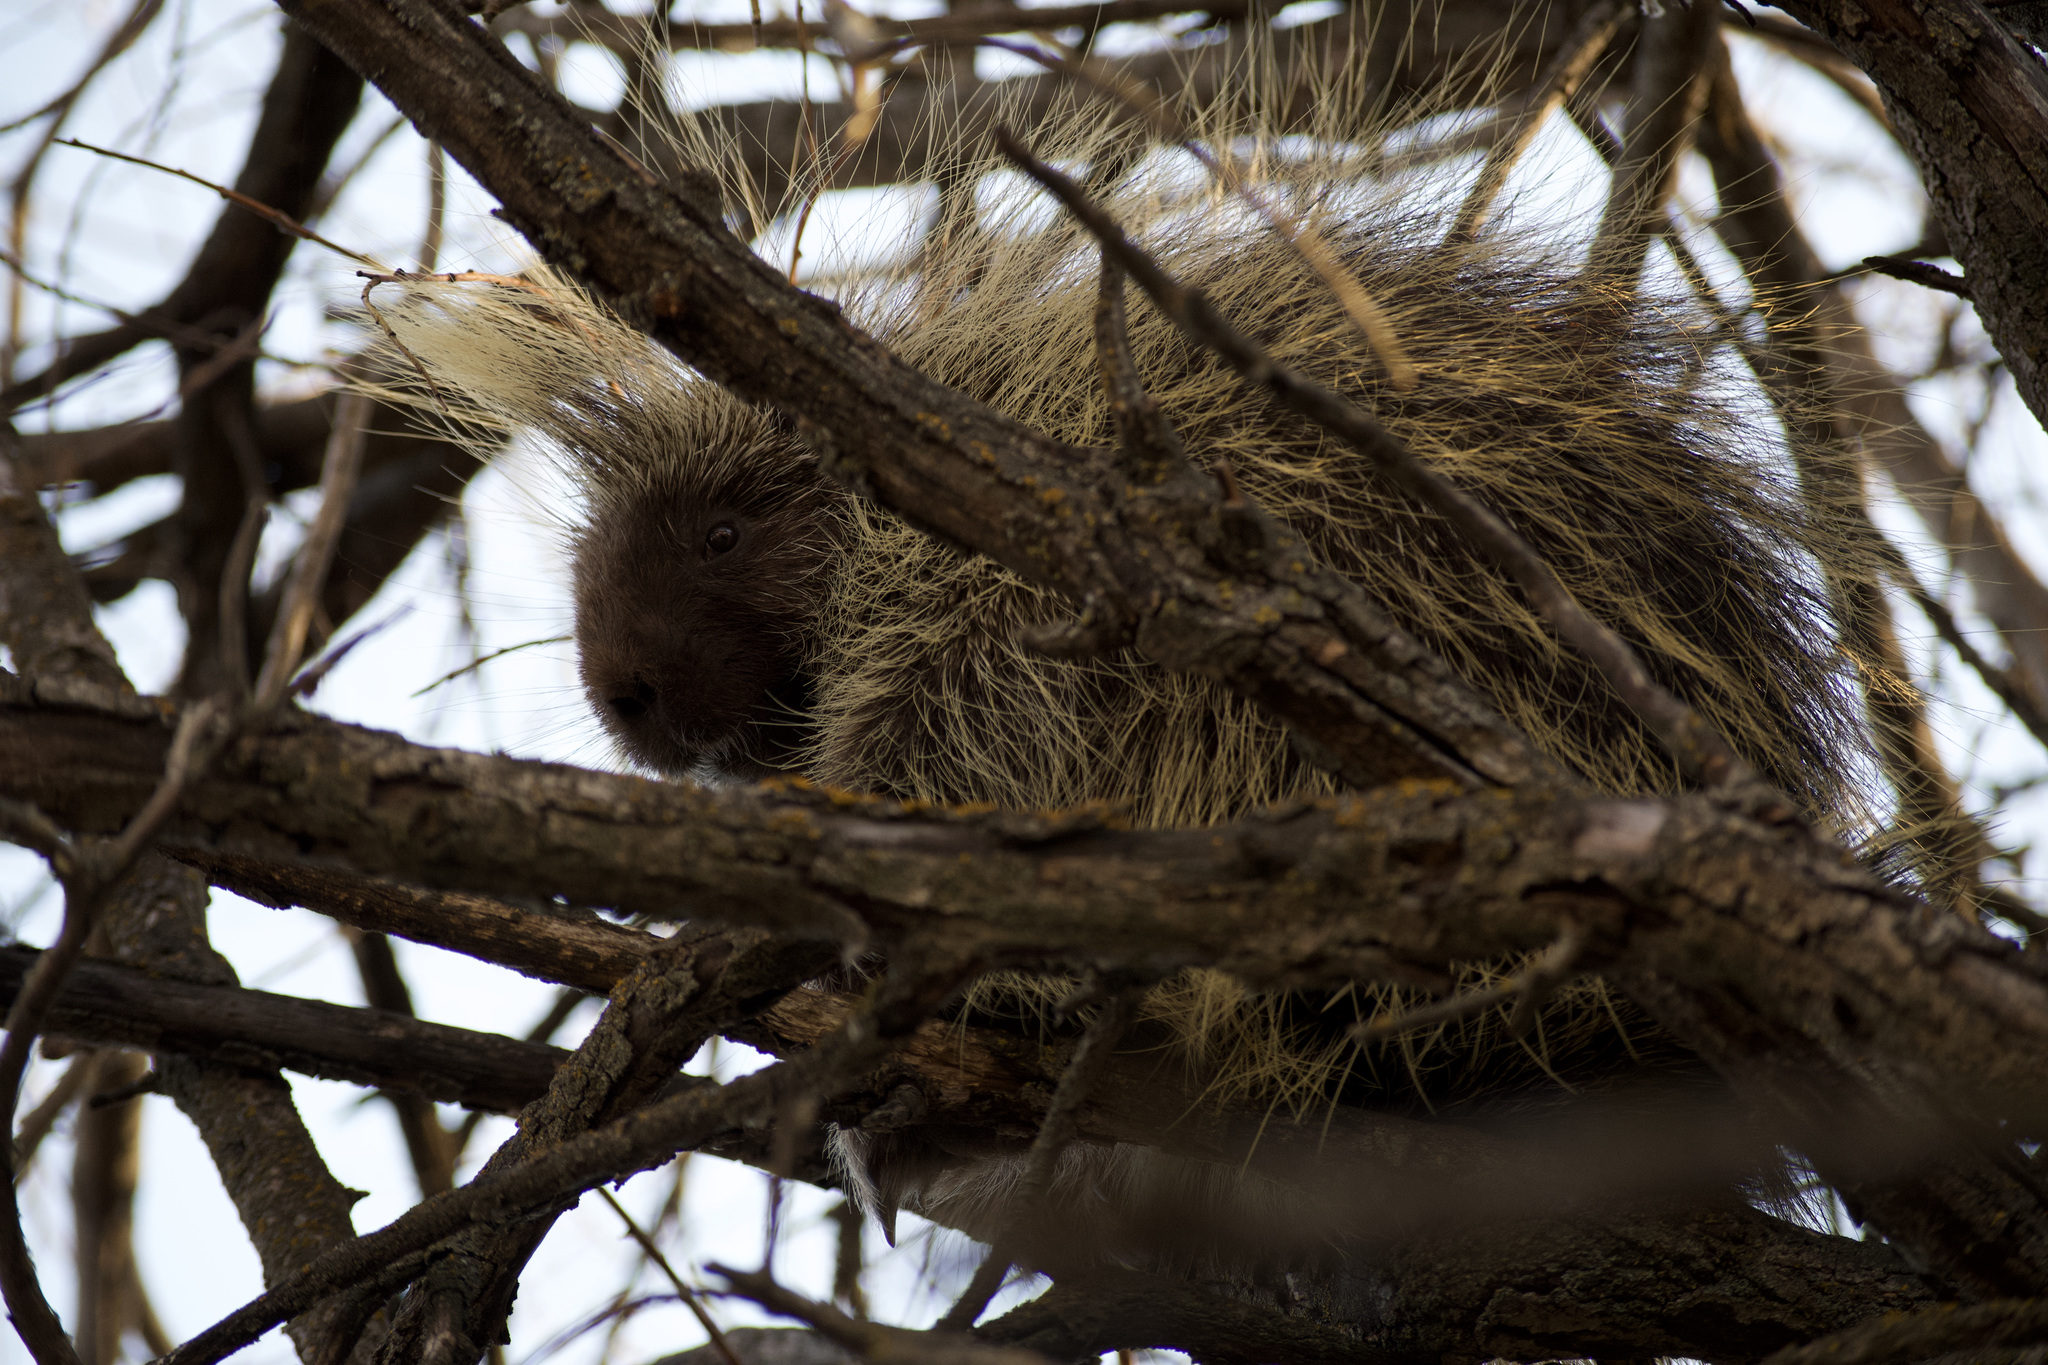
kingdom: Animalia
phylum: Chordata
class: Mammalia
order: Rodentia
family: Erethizontidae
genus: Erethizon
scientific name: Erethizon dorsatus
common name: North american porcupine
